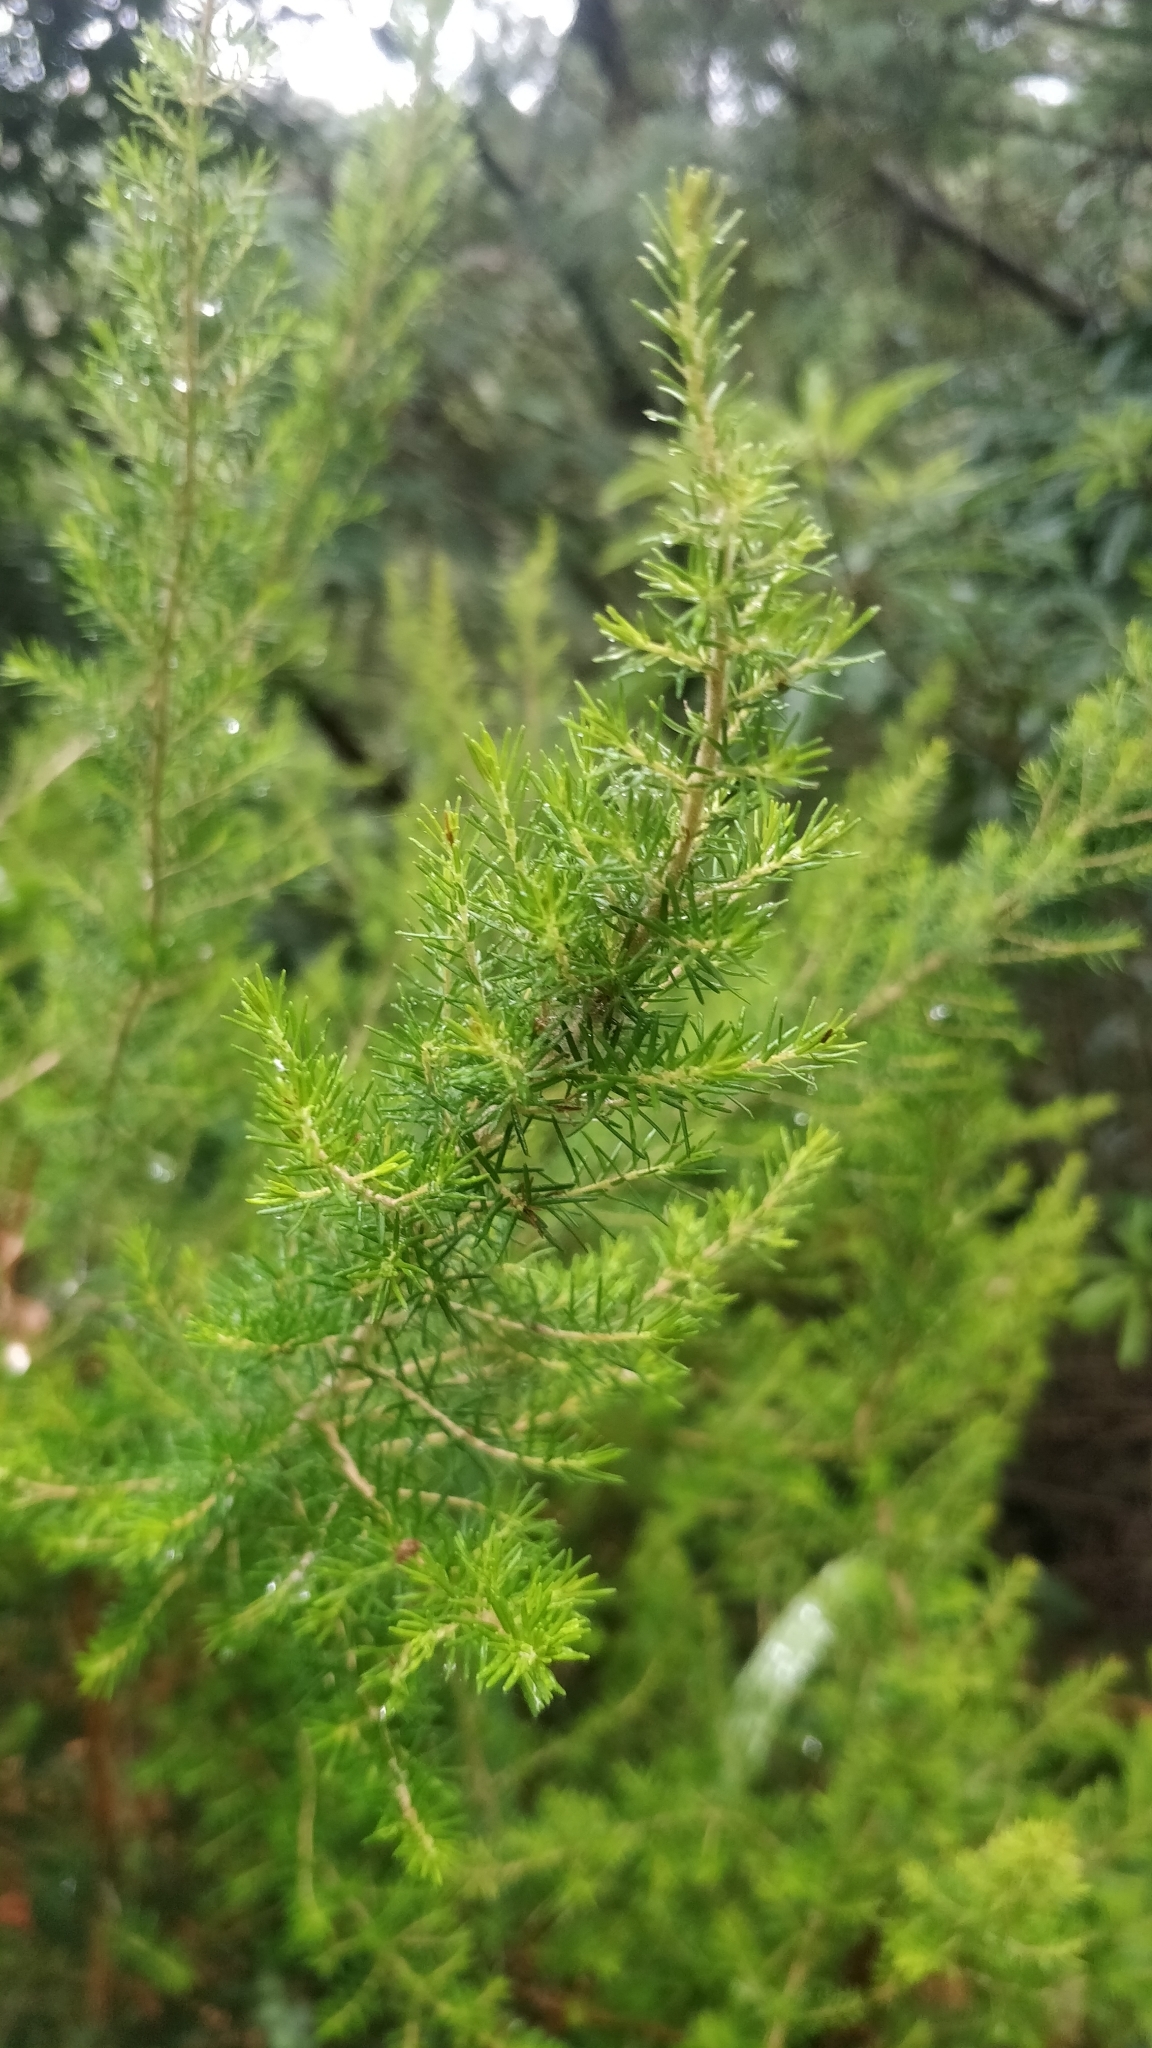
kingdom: Plantae
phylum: Tracheophyta
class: Magnoliopsida
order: Ericales
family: Ericaceae
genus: Erica
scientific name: Erica canariensis
